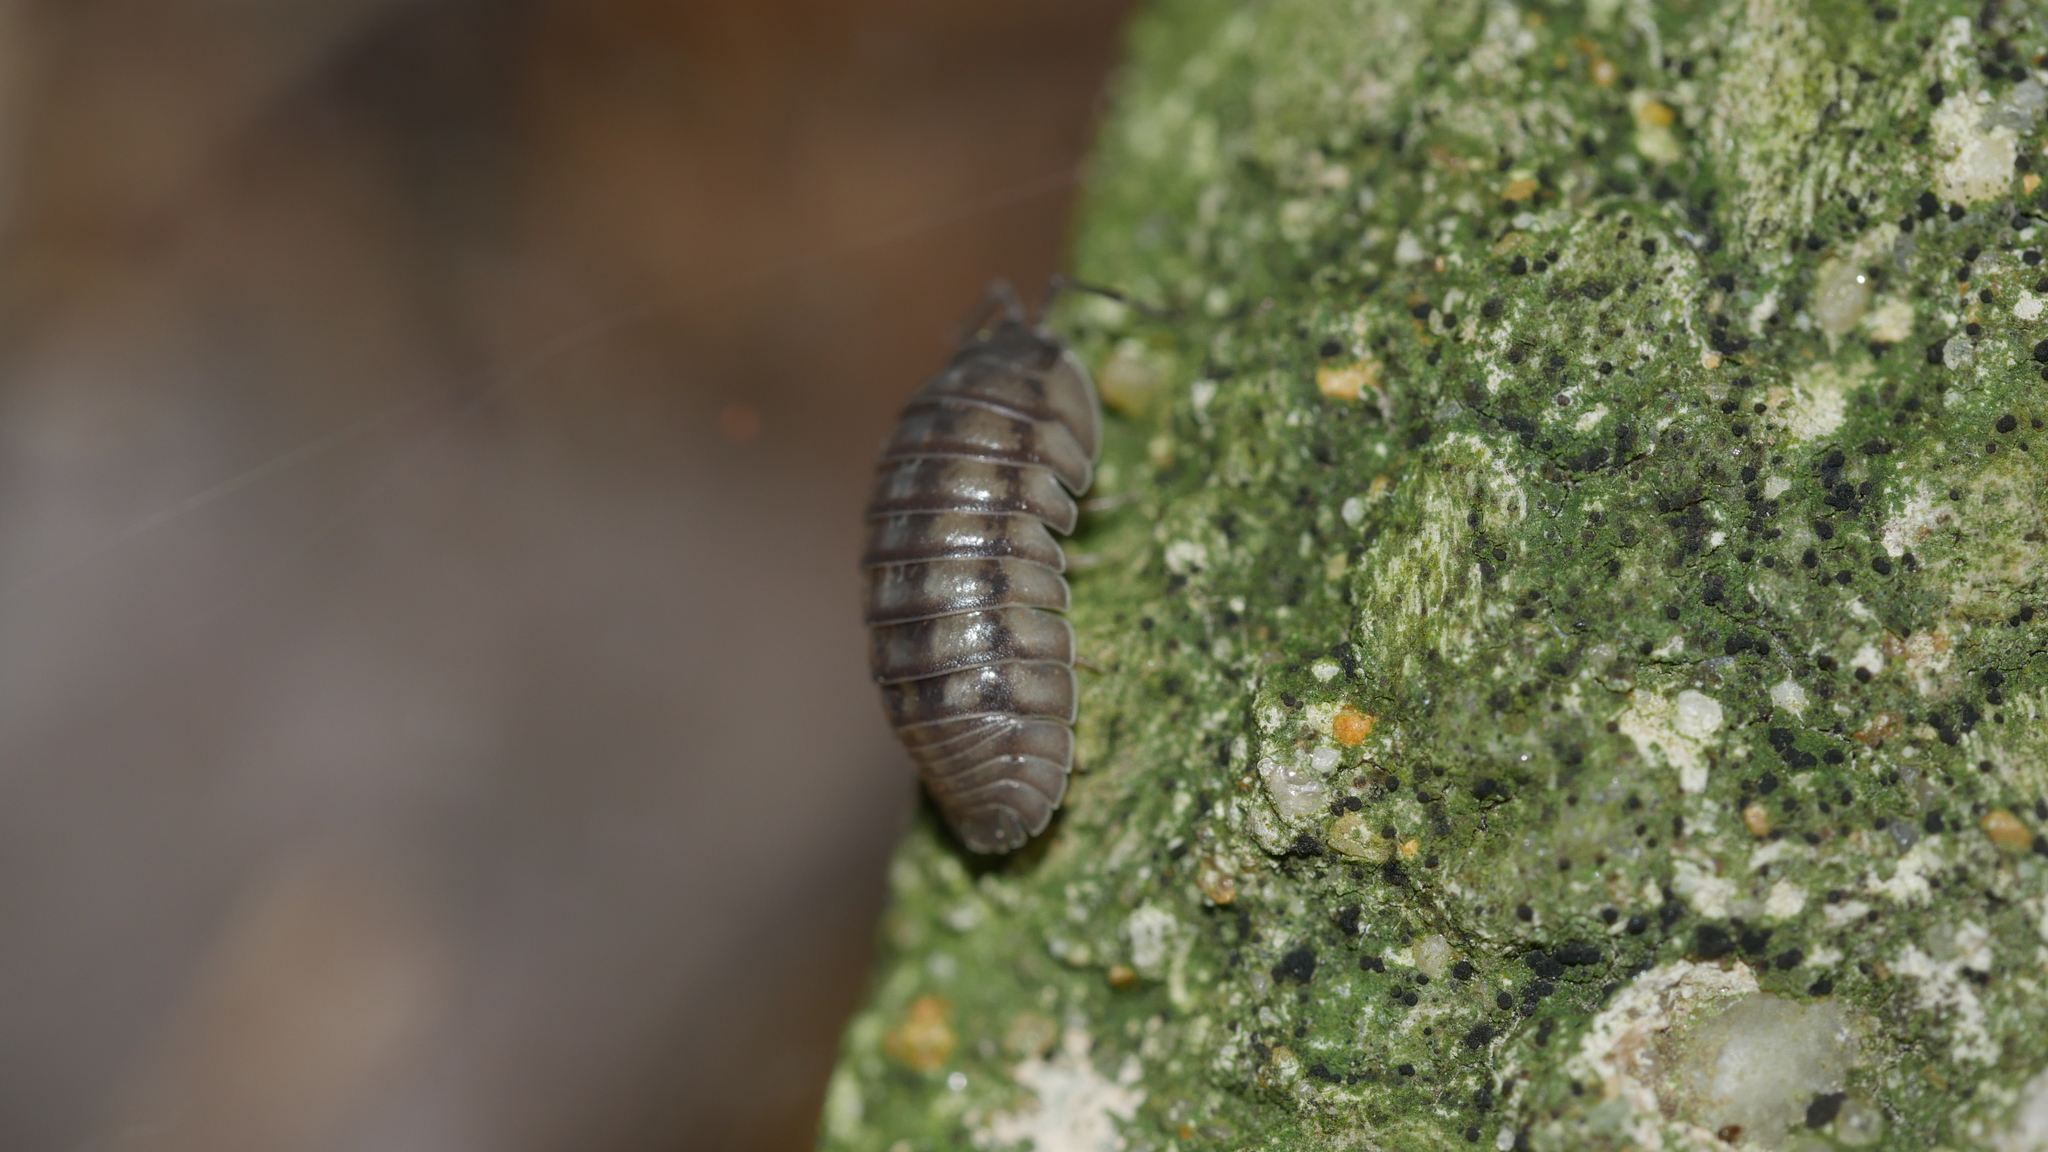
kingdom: Animalia
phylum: Arthropoda
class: Malacostraca
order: Isopoda
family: Armadillidiidae
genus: Armadillidium
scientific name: Armadillidium nasatum
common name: Isopod
